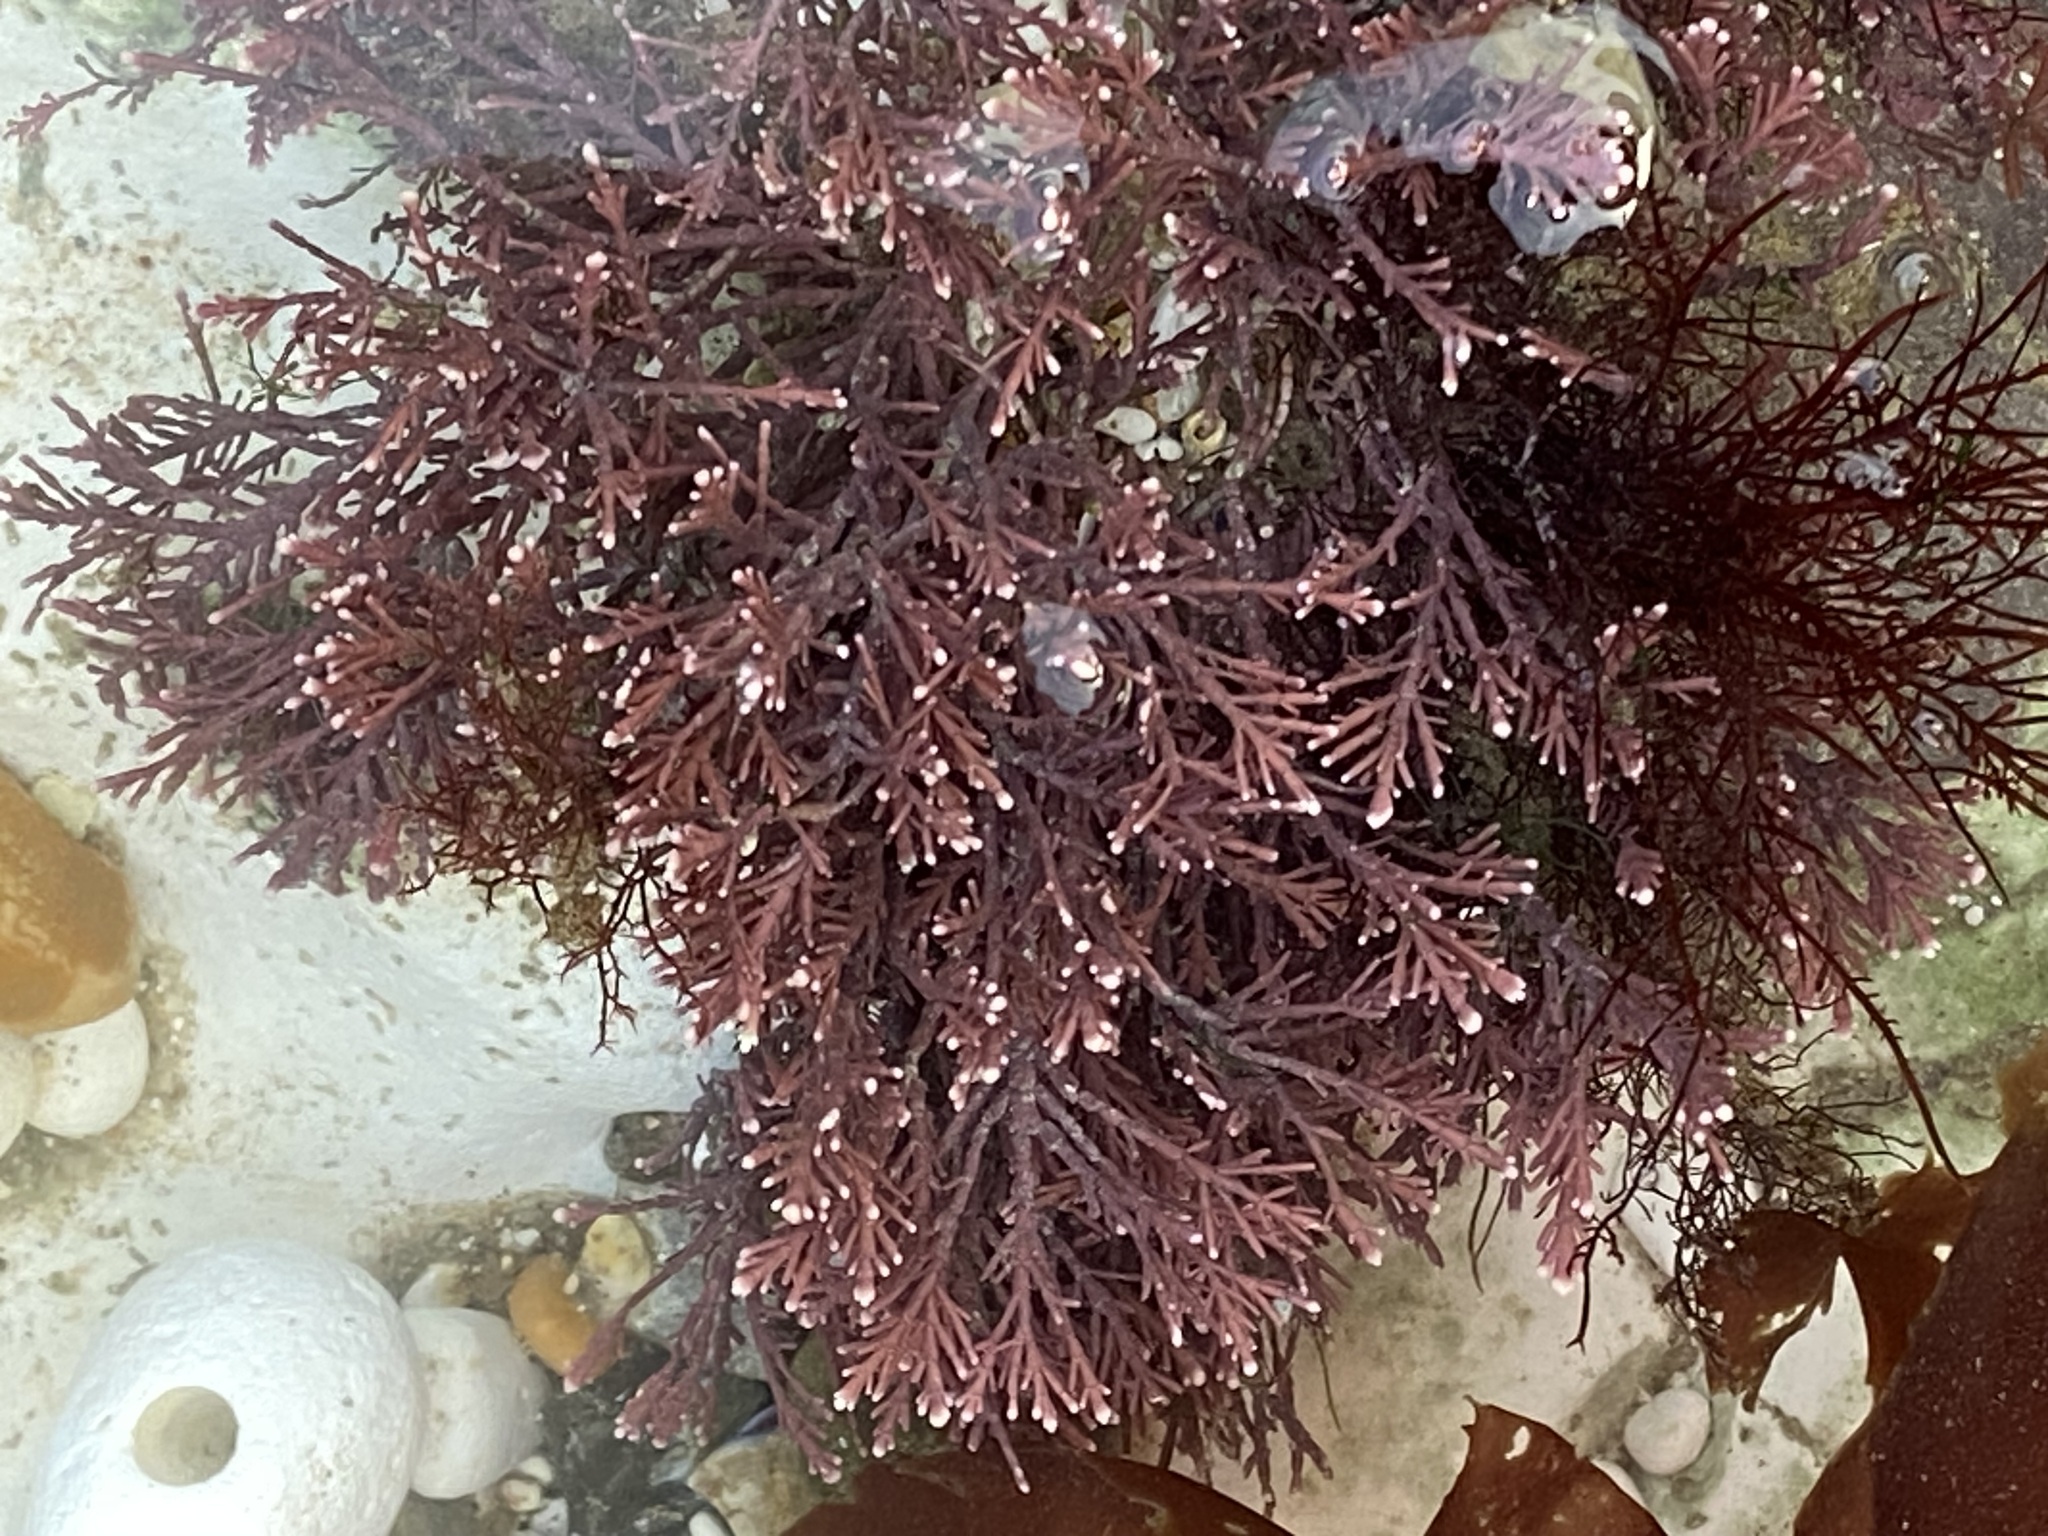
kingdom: Plantae
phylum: Rhodophyta
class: Florideophyceae
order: Corallinales
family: Corallinaceae
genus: Corallina
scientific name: Corallina officinalis
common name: Coral weed
